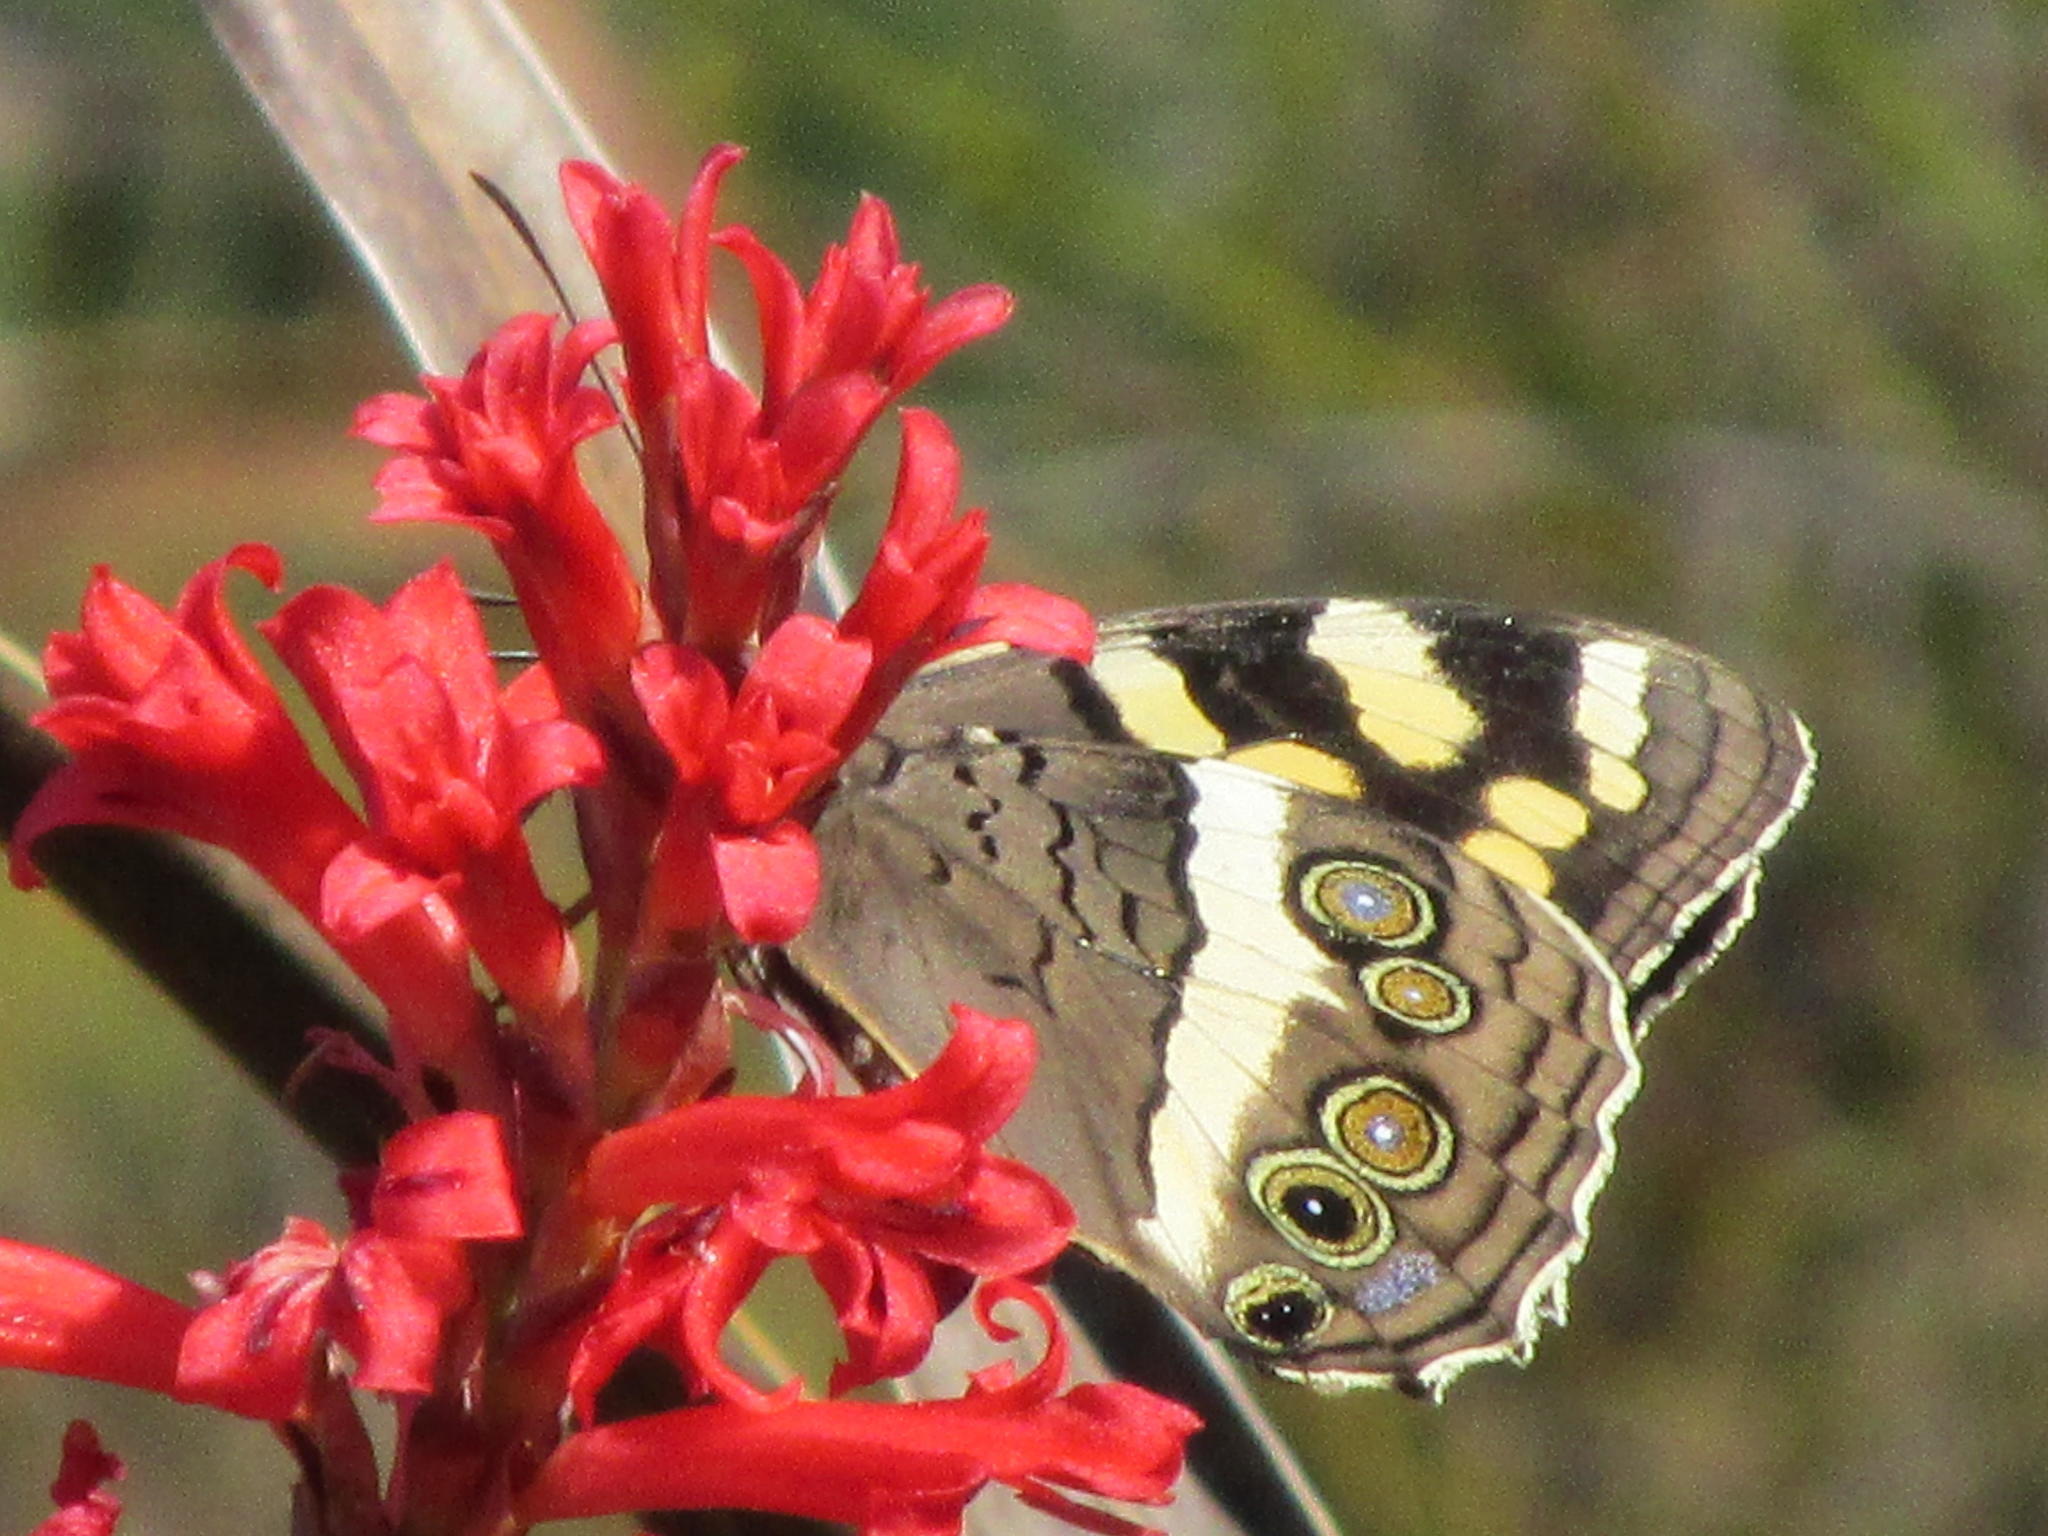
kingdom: Animalia
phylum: Arthropoda
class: Insecta
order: Lepidoptera
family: Nymphalidae
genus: Meneris
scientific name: Meneris Aeropetes tulbaghia
